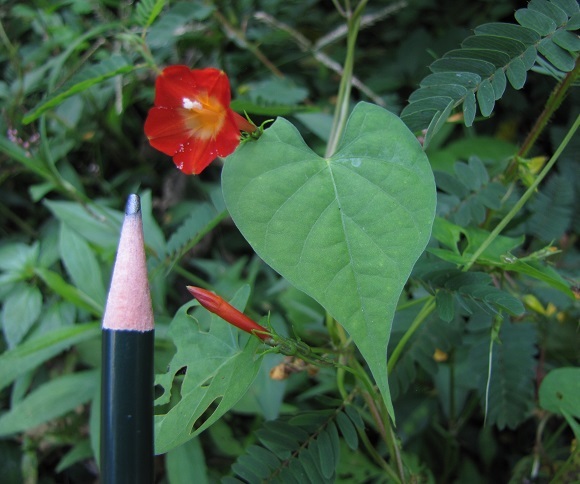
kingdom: Plantae
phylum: Tracheophyta
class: Magnoliopsida
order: Solanales
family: Convolvulaceae
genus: Ipomoea
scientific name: Ipomoea coccinea
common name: Red morning-glory
